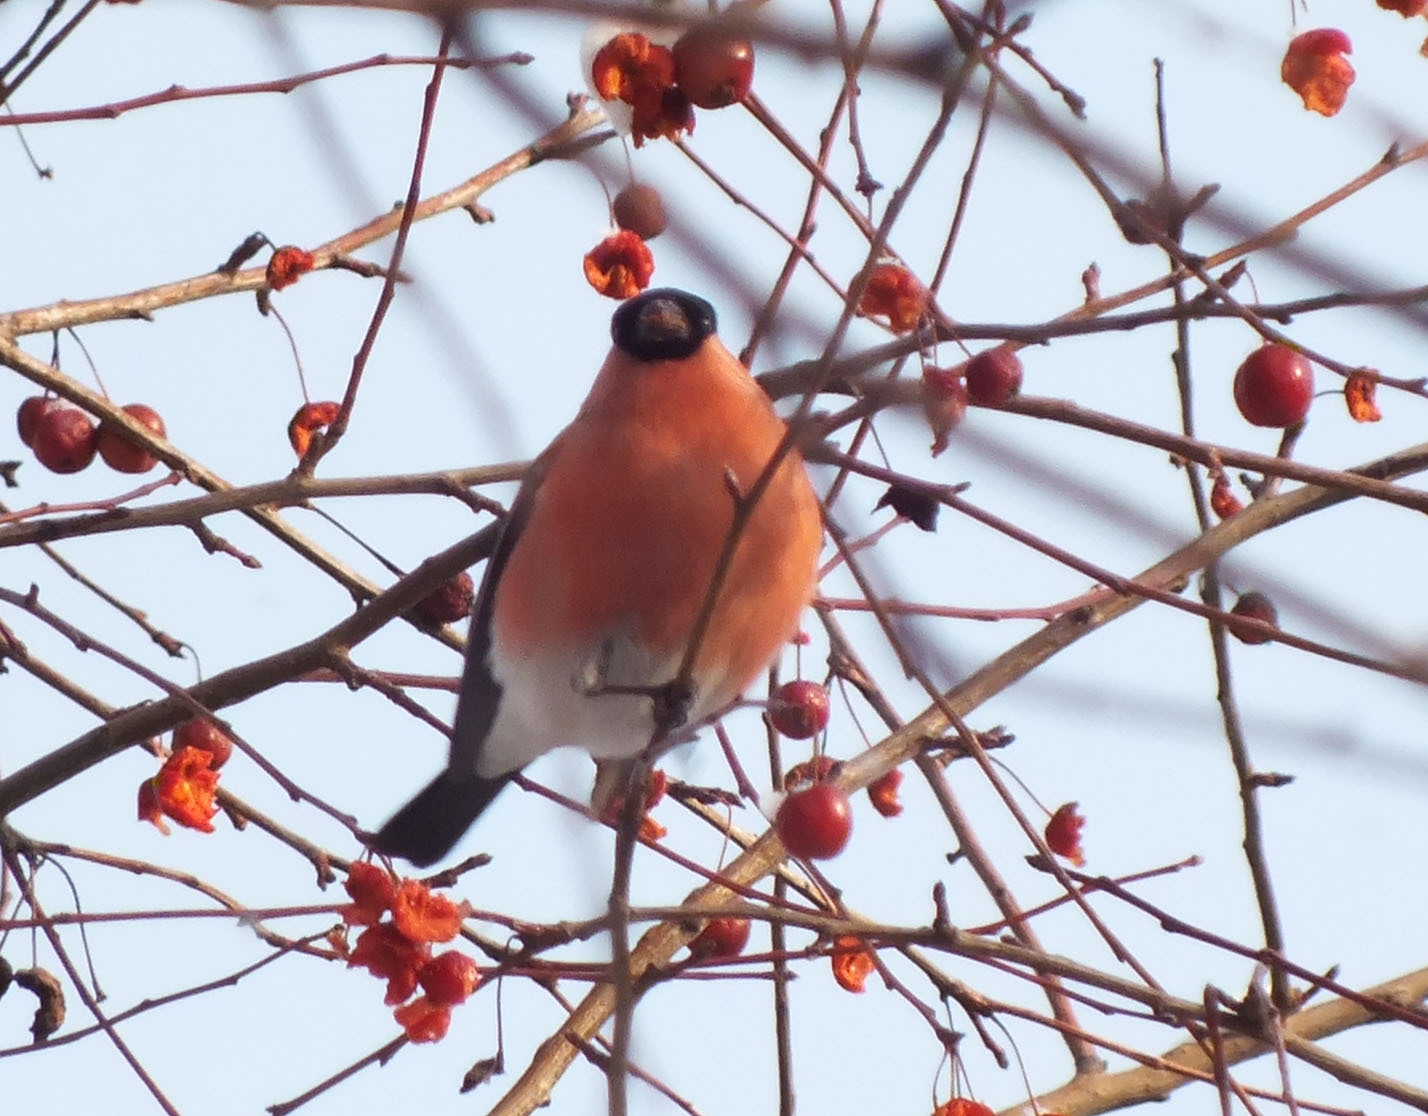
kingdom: Animalia
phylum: Chordata
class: Aves
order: Passeriformes
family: Fringillidae
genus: Pyrrhula
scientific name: Pyrrhula pyrrhula
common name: Eurasian bullfinch
